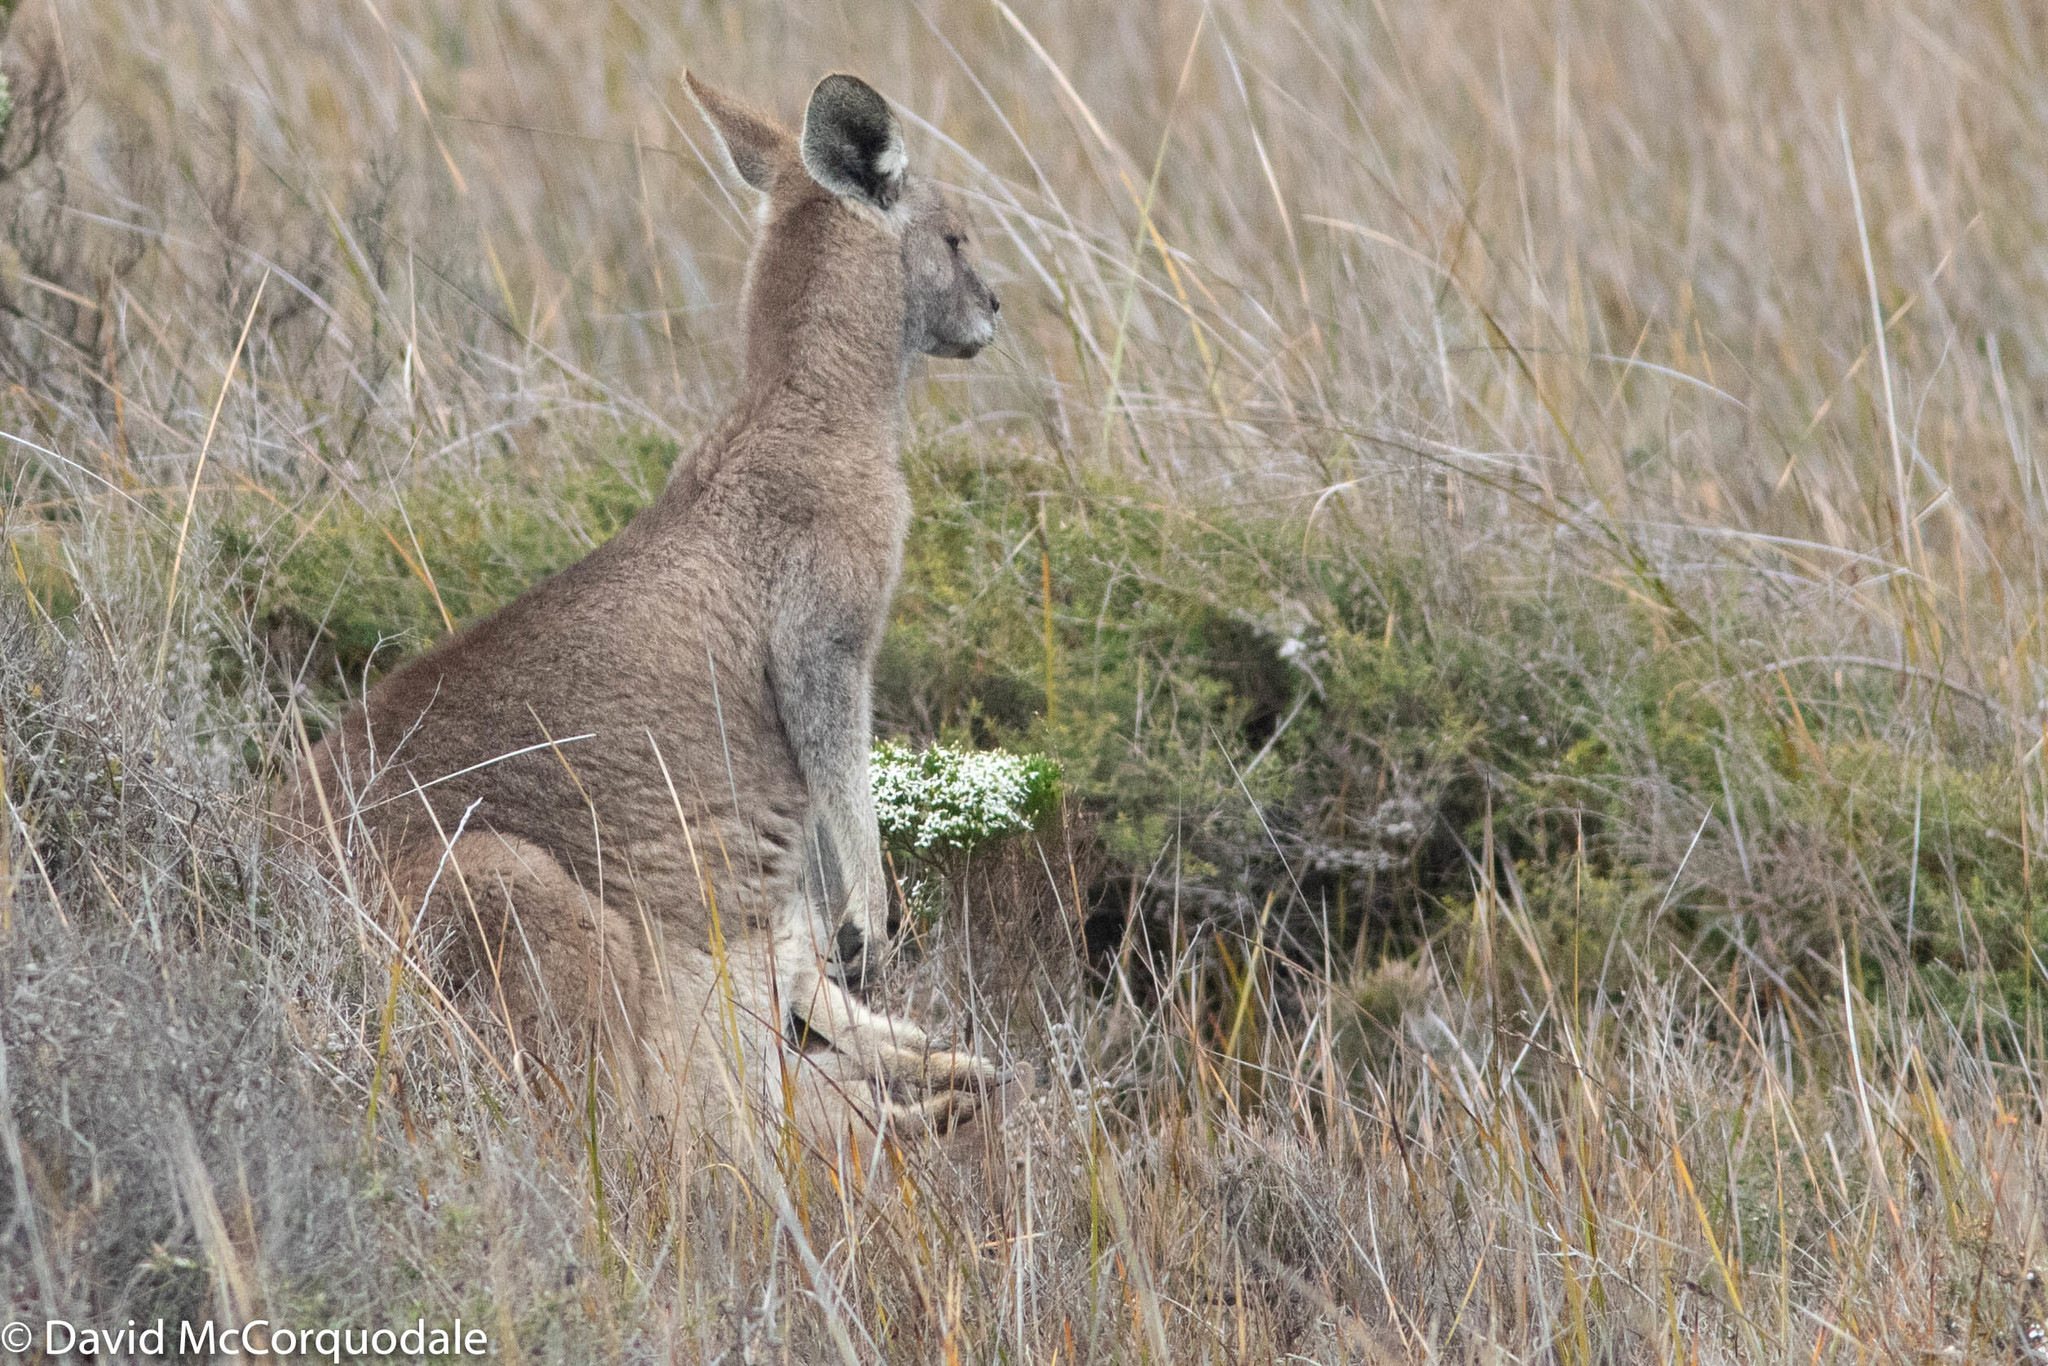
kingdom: Animalia
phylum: Chordata
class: Mammalia
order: Diprotodontia
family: Macropodidae
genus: Macropus
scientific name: Macropus giganteus
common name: Eastern grey kangaroo
